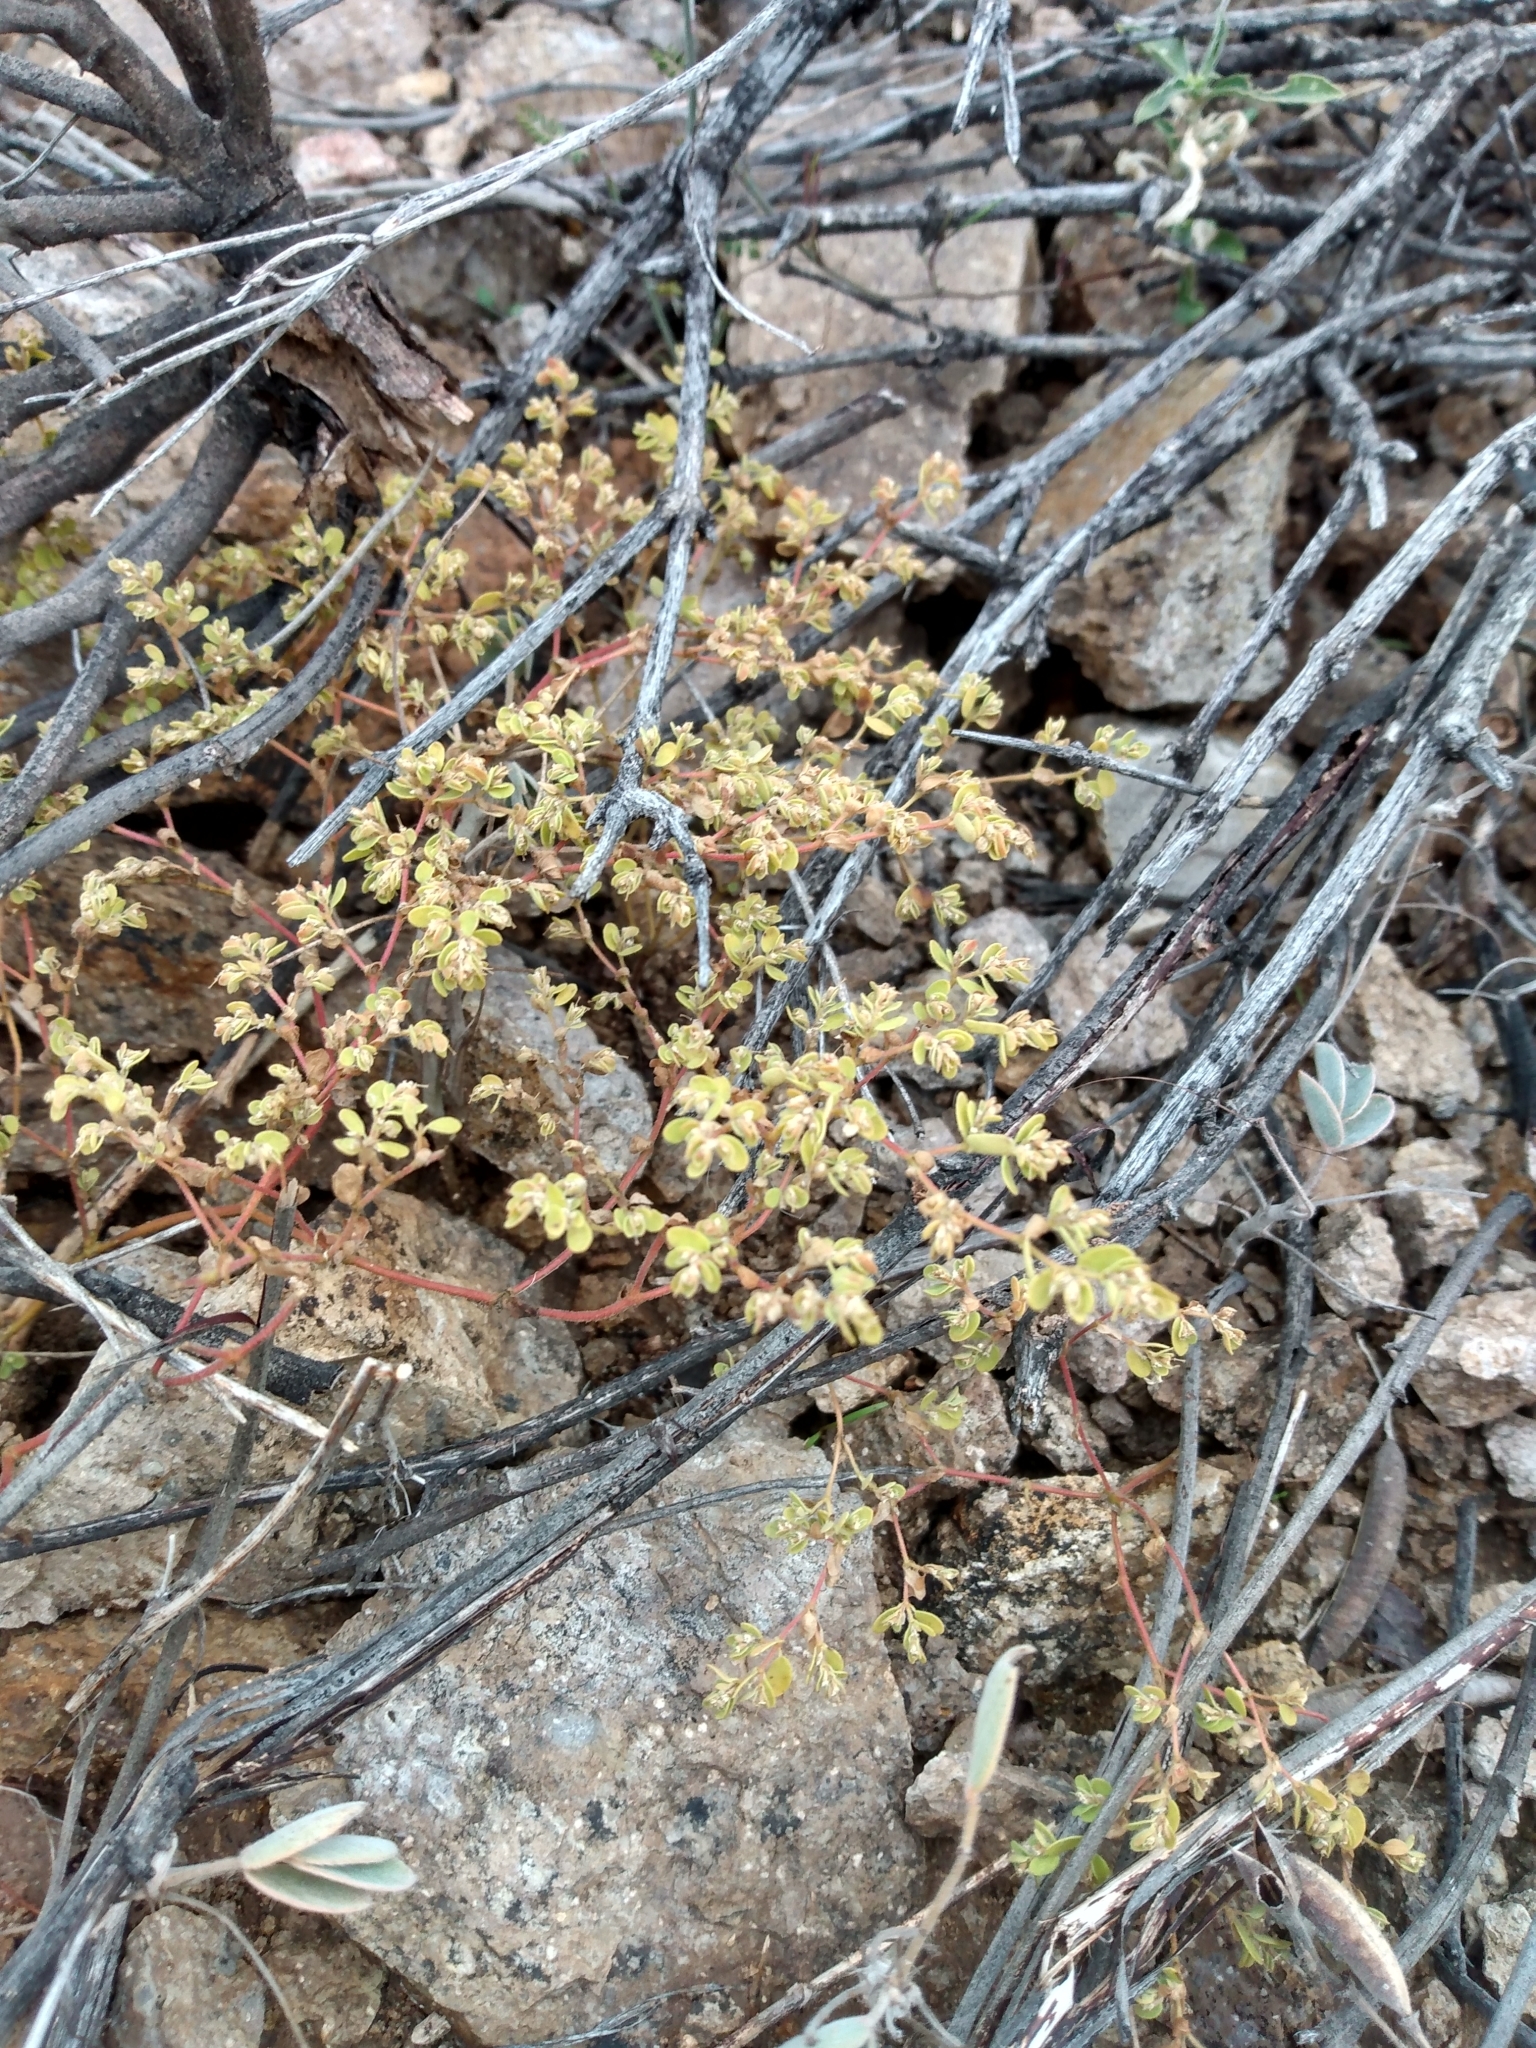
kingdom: Plantae
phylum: Tracheophyta
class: Magnoliopsida
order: Malpighiales
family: Euphorbiaceae
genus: Euphorbia
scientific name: Euphorbia polycarpa
